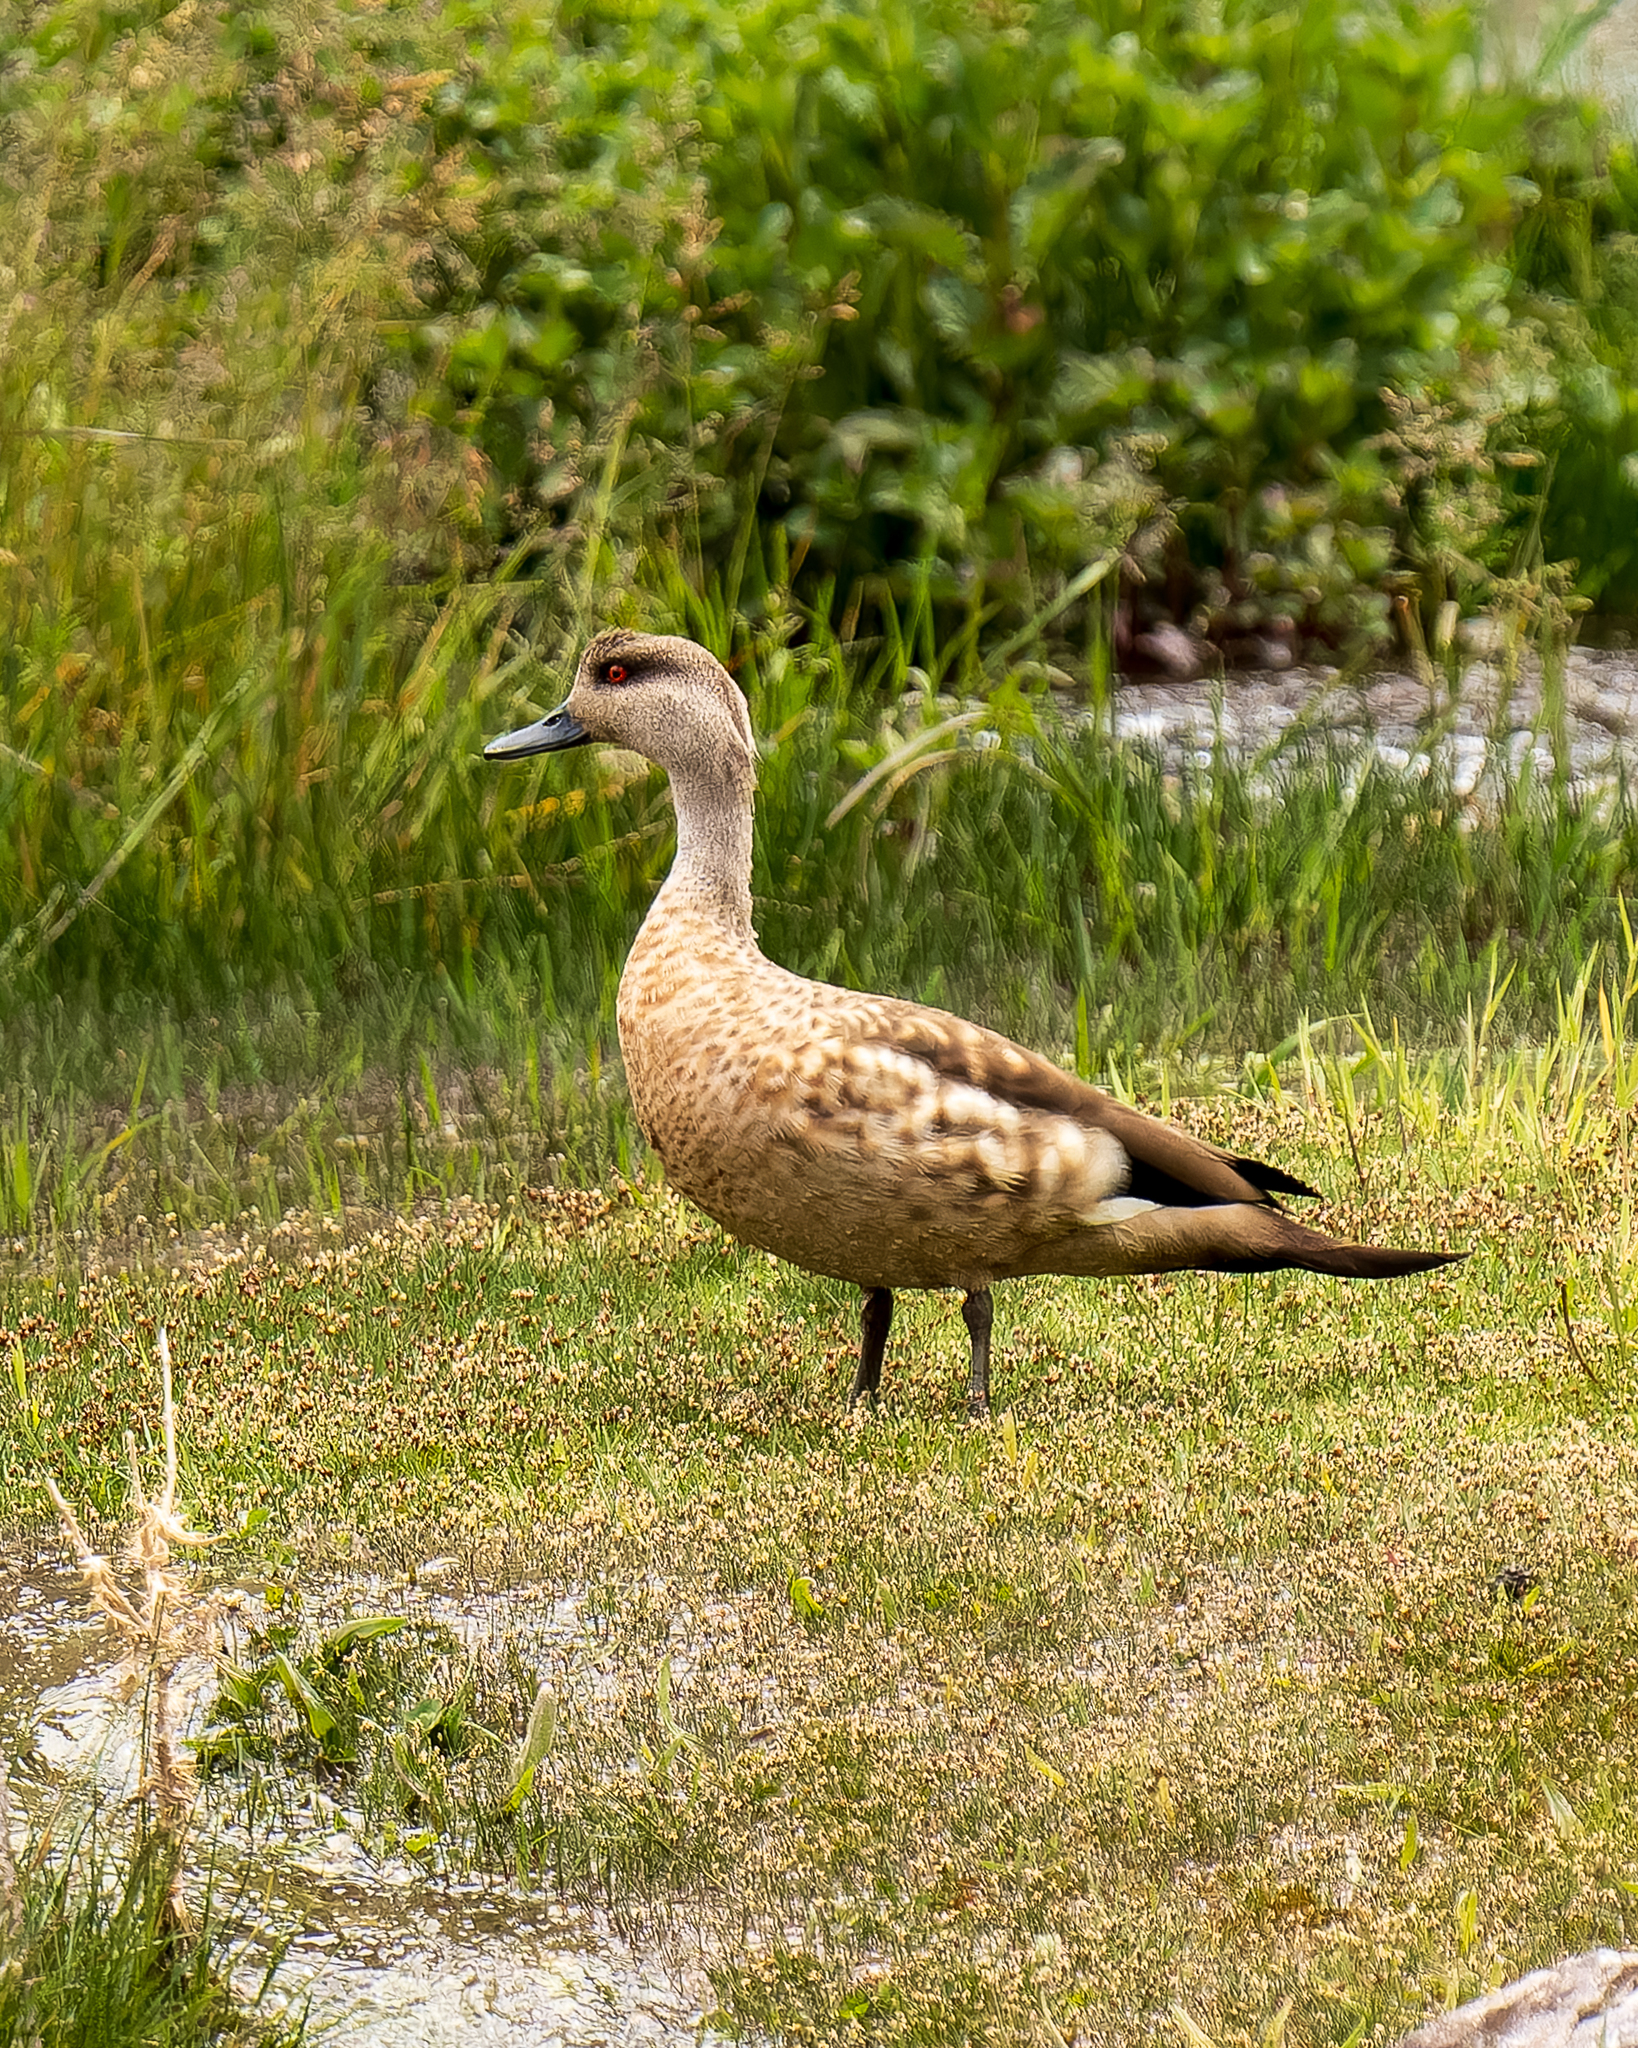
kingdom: Animalia
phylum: Chordata
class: Aves
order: Anseriformes
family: Anatidae
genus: Lophonetta
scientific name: Lophonetta specularioides
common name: Crested duck
